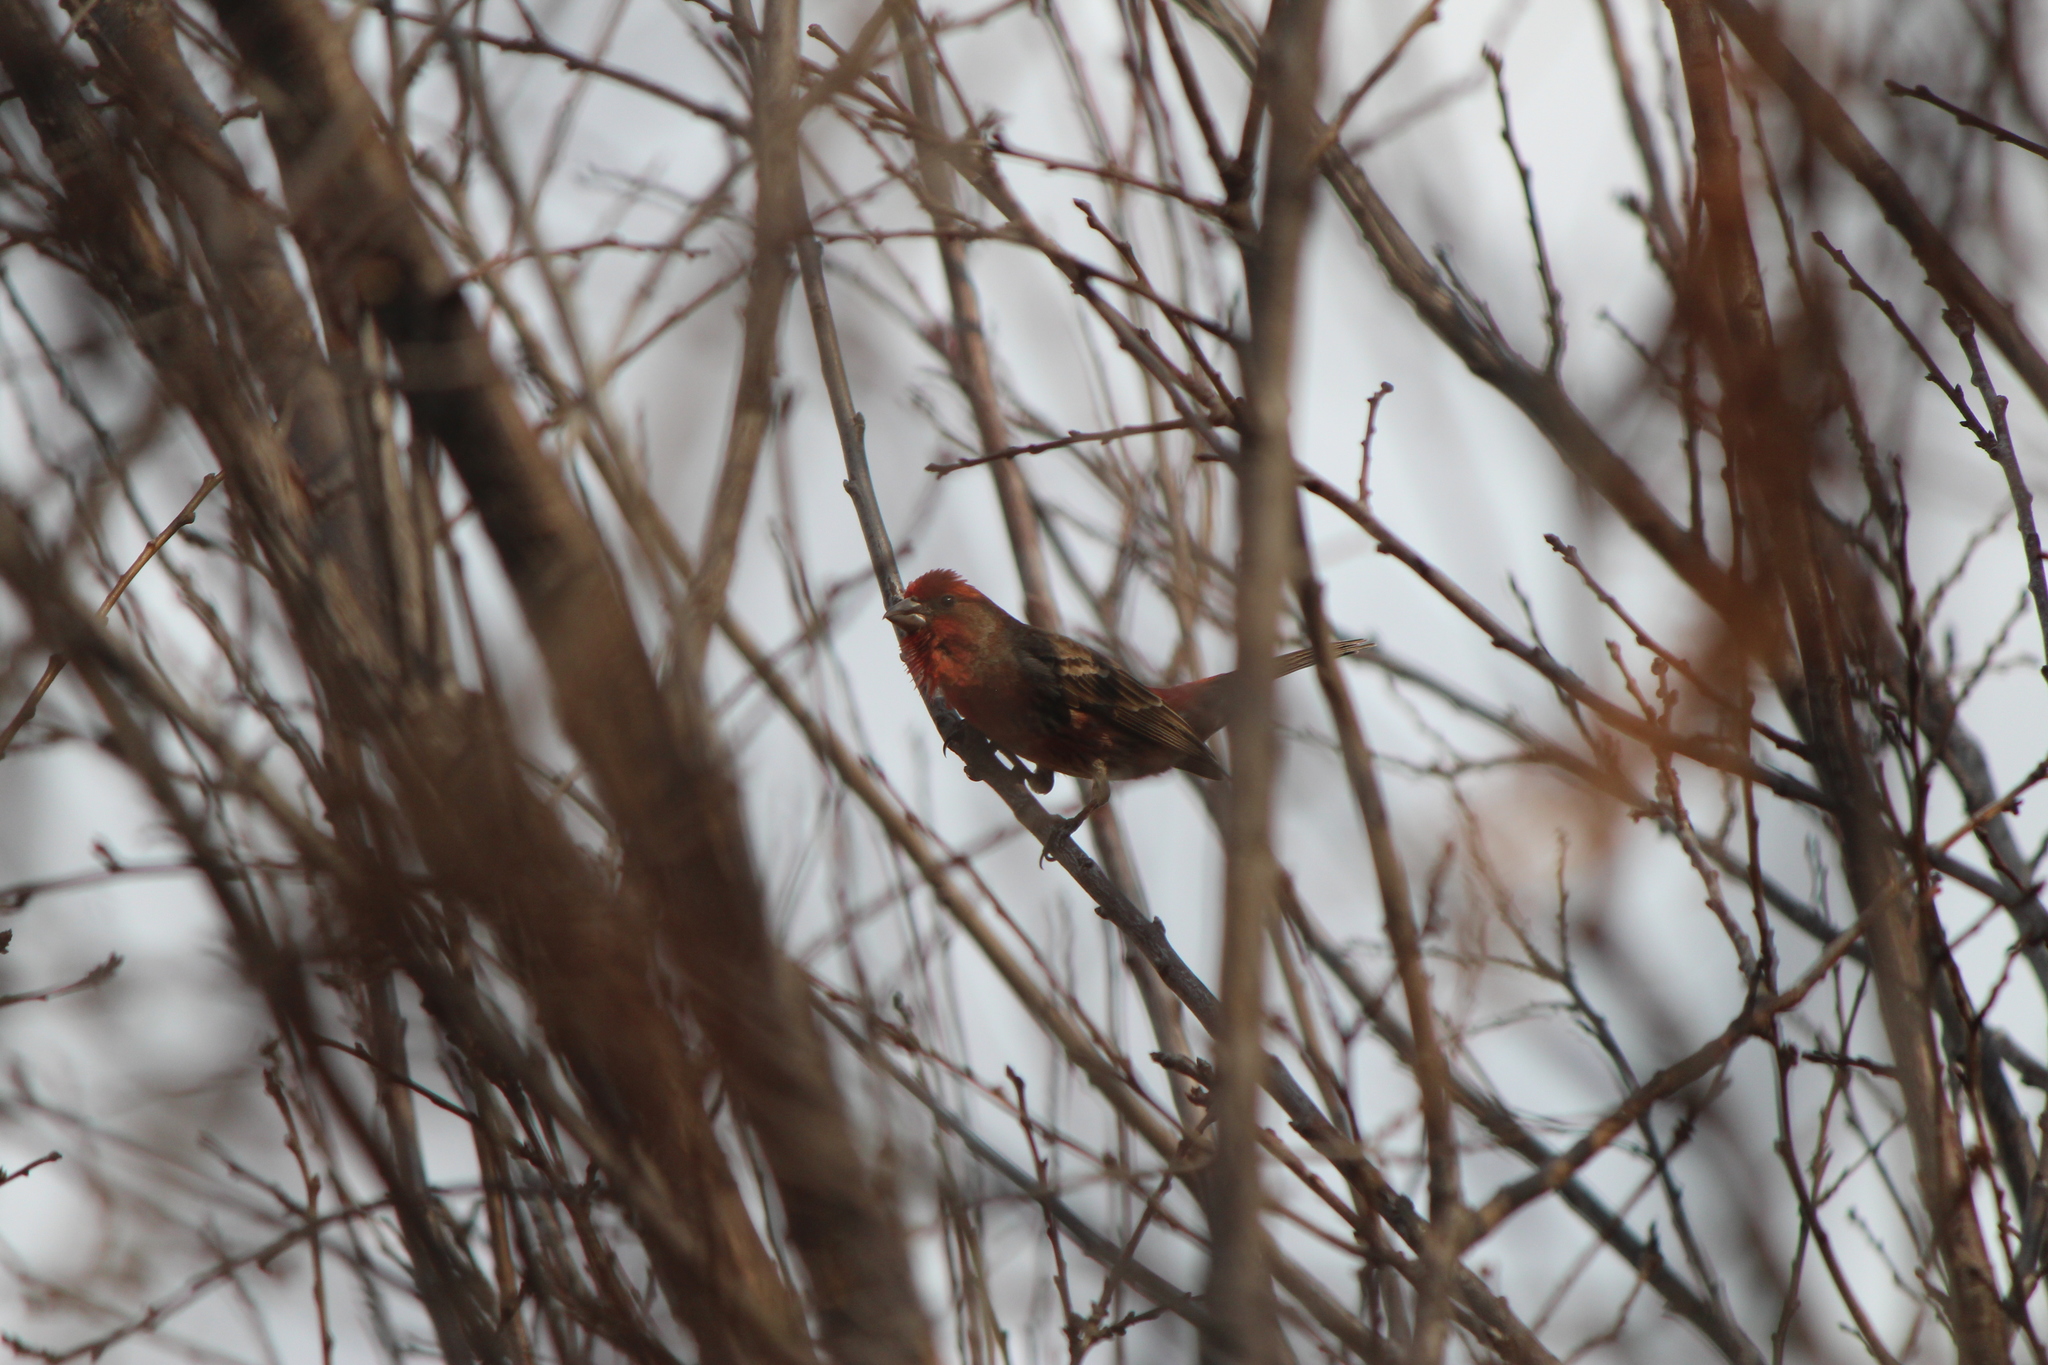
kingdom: Animalia
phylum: Chordata
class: Aves
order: Passeriformes
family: Fringillidae
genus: Haemorhous
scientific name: Haemorhous mexicanus
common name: House finch
